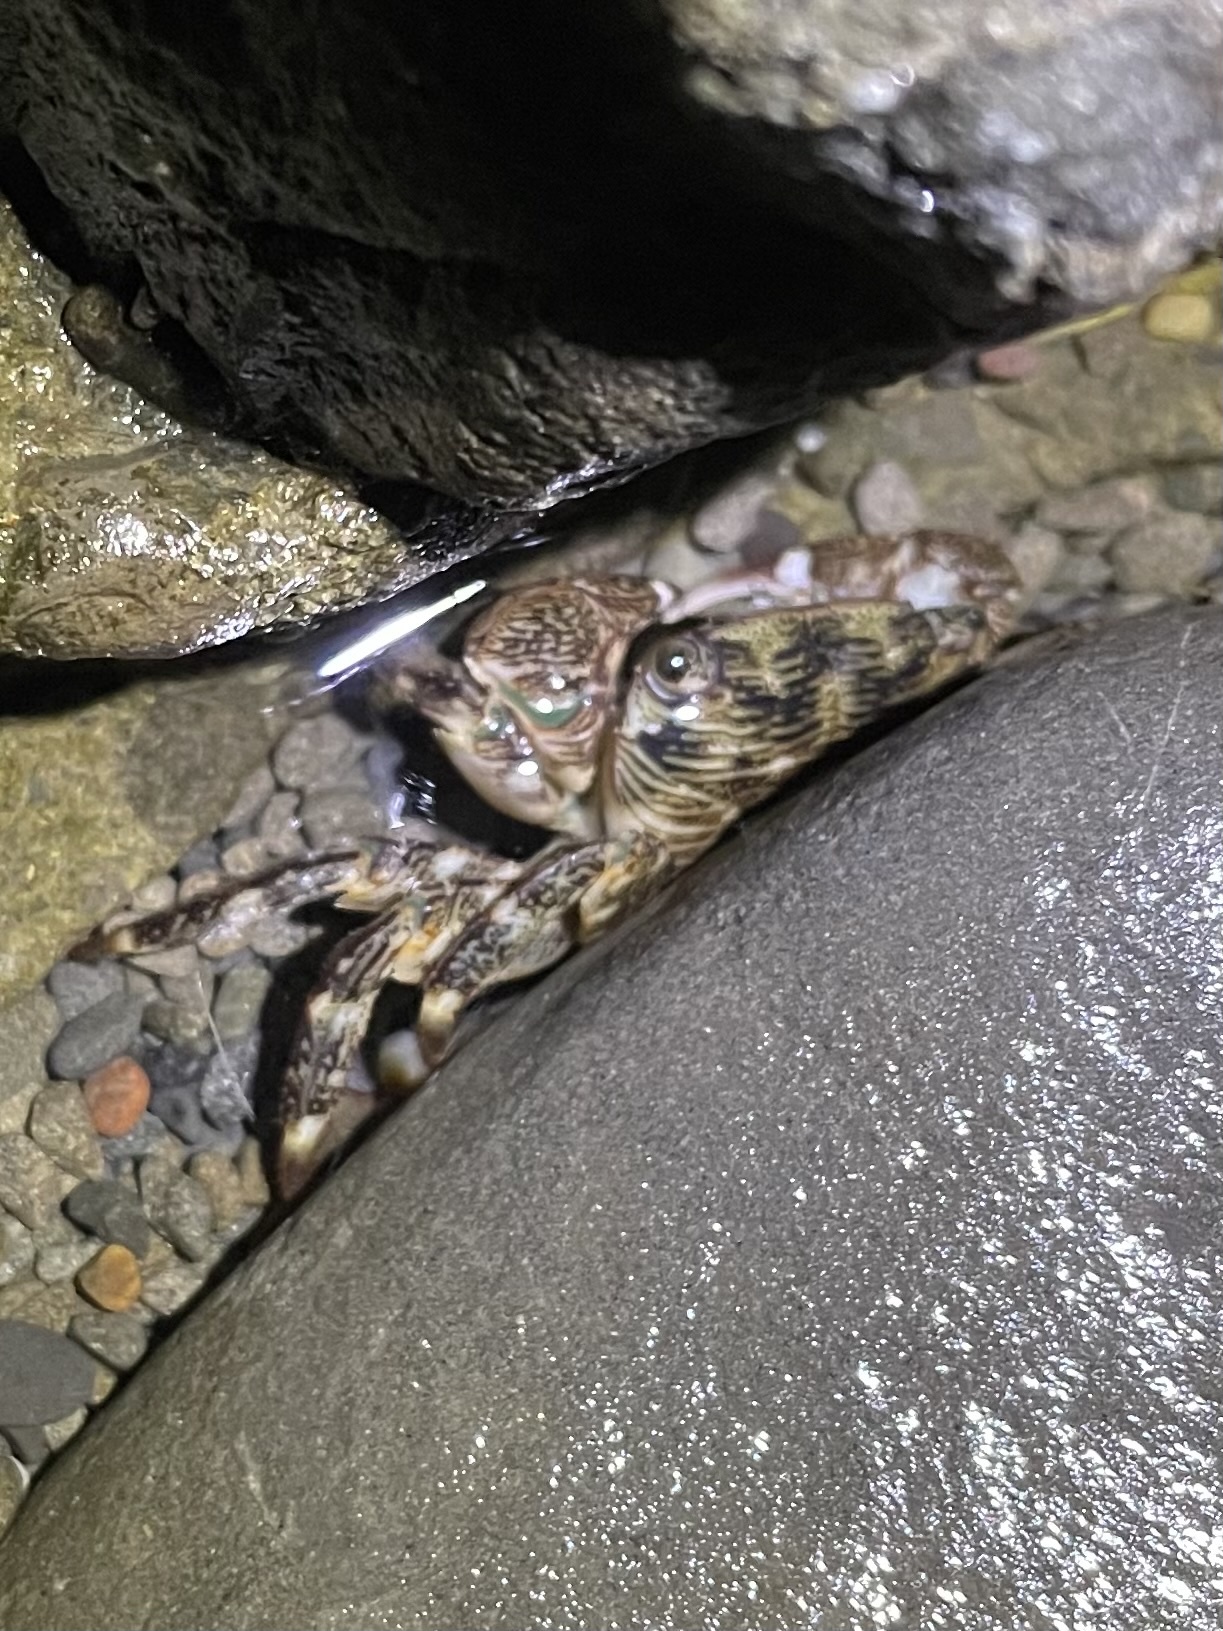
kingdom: Animalia
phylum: Arthropoda
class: Malacostraca
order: Decapoda
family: Grapsidae
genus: Pachygrapsus
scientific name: Pachygrapsus crassipes
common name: Striped shore crab
